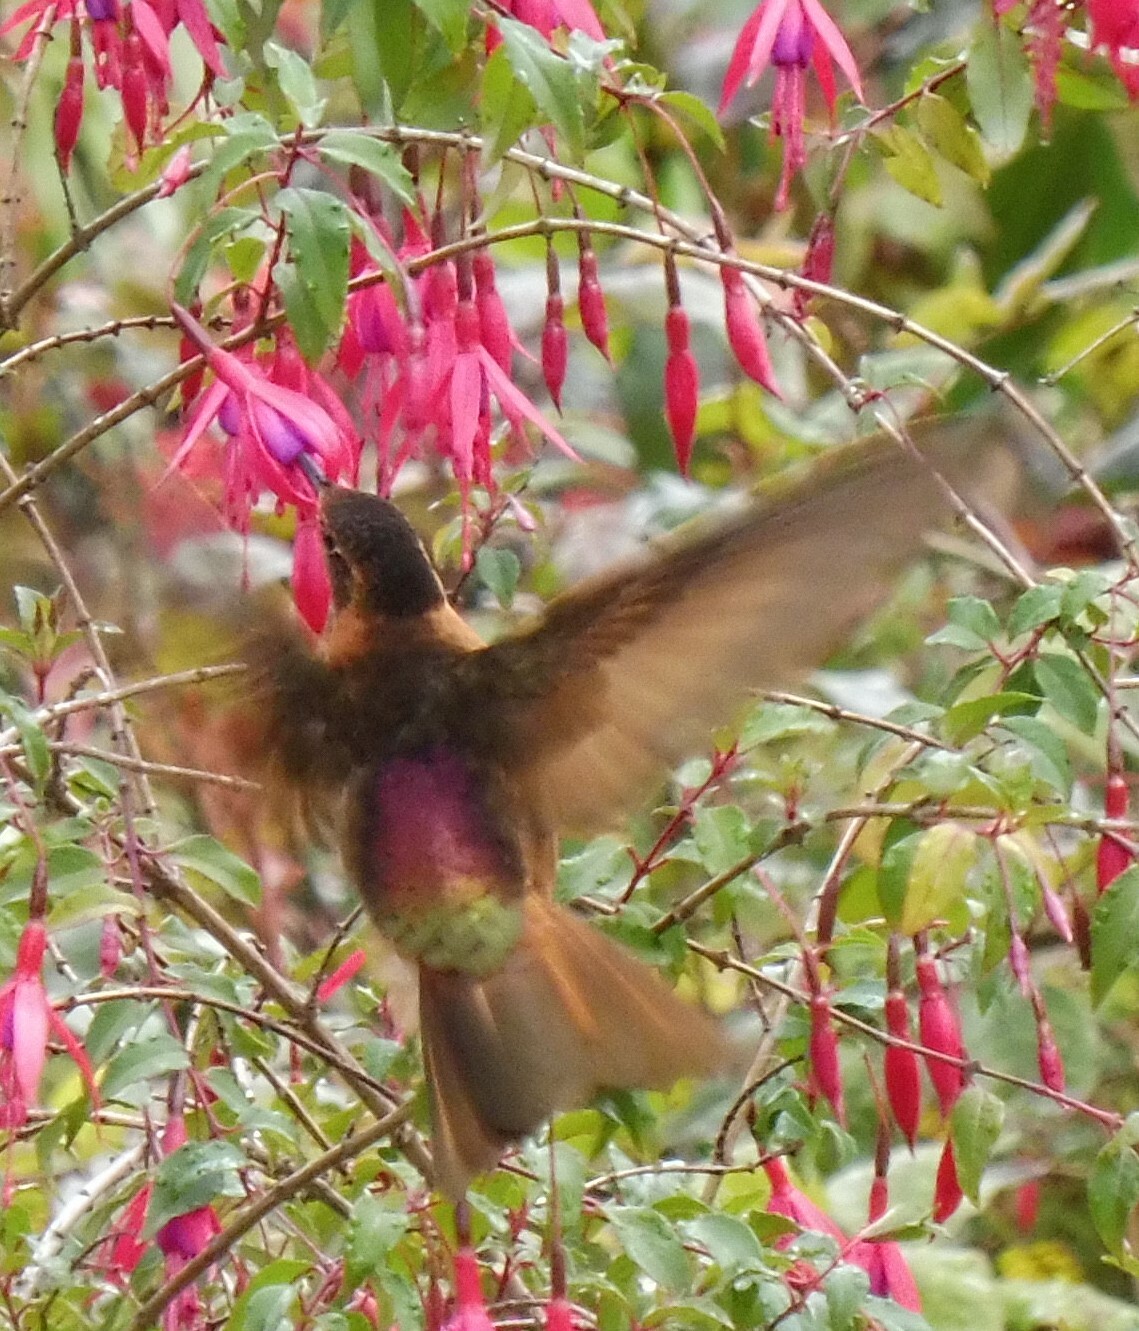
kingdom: Animalia
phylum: Chordata
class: Aves
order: Apodiformes
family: Trochilidae
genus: Aglaeactis
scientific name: Aglaeactis cupripennis
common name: Shining sunbeam
